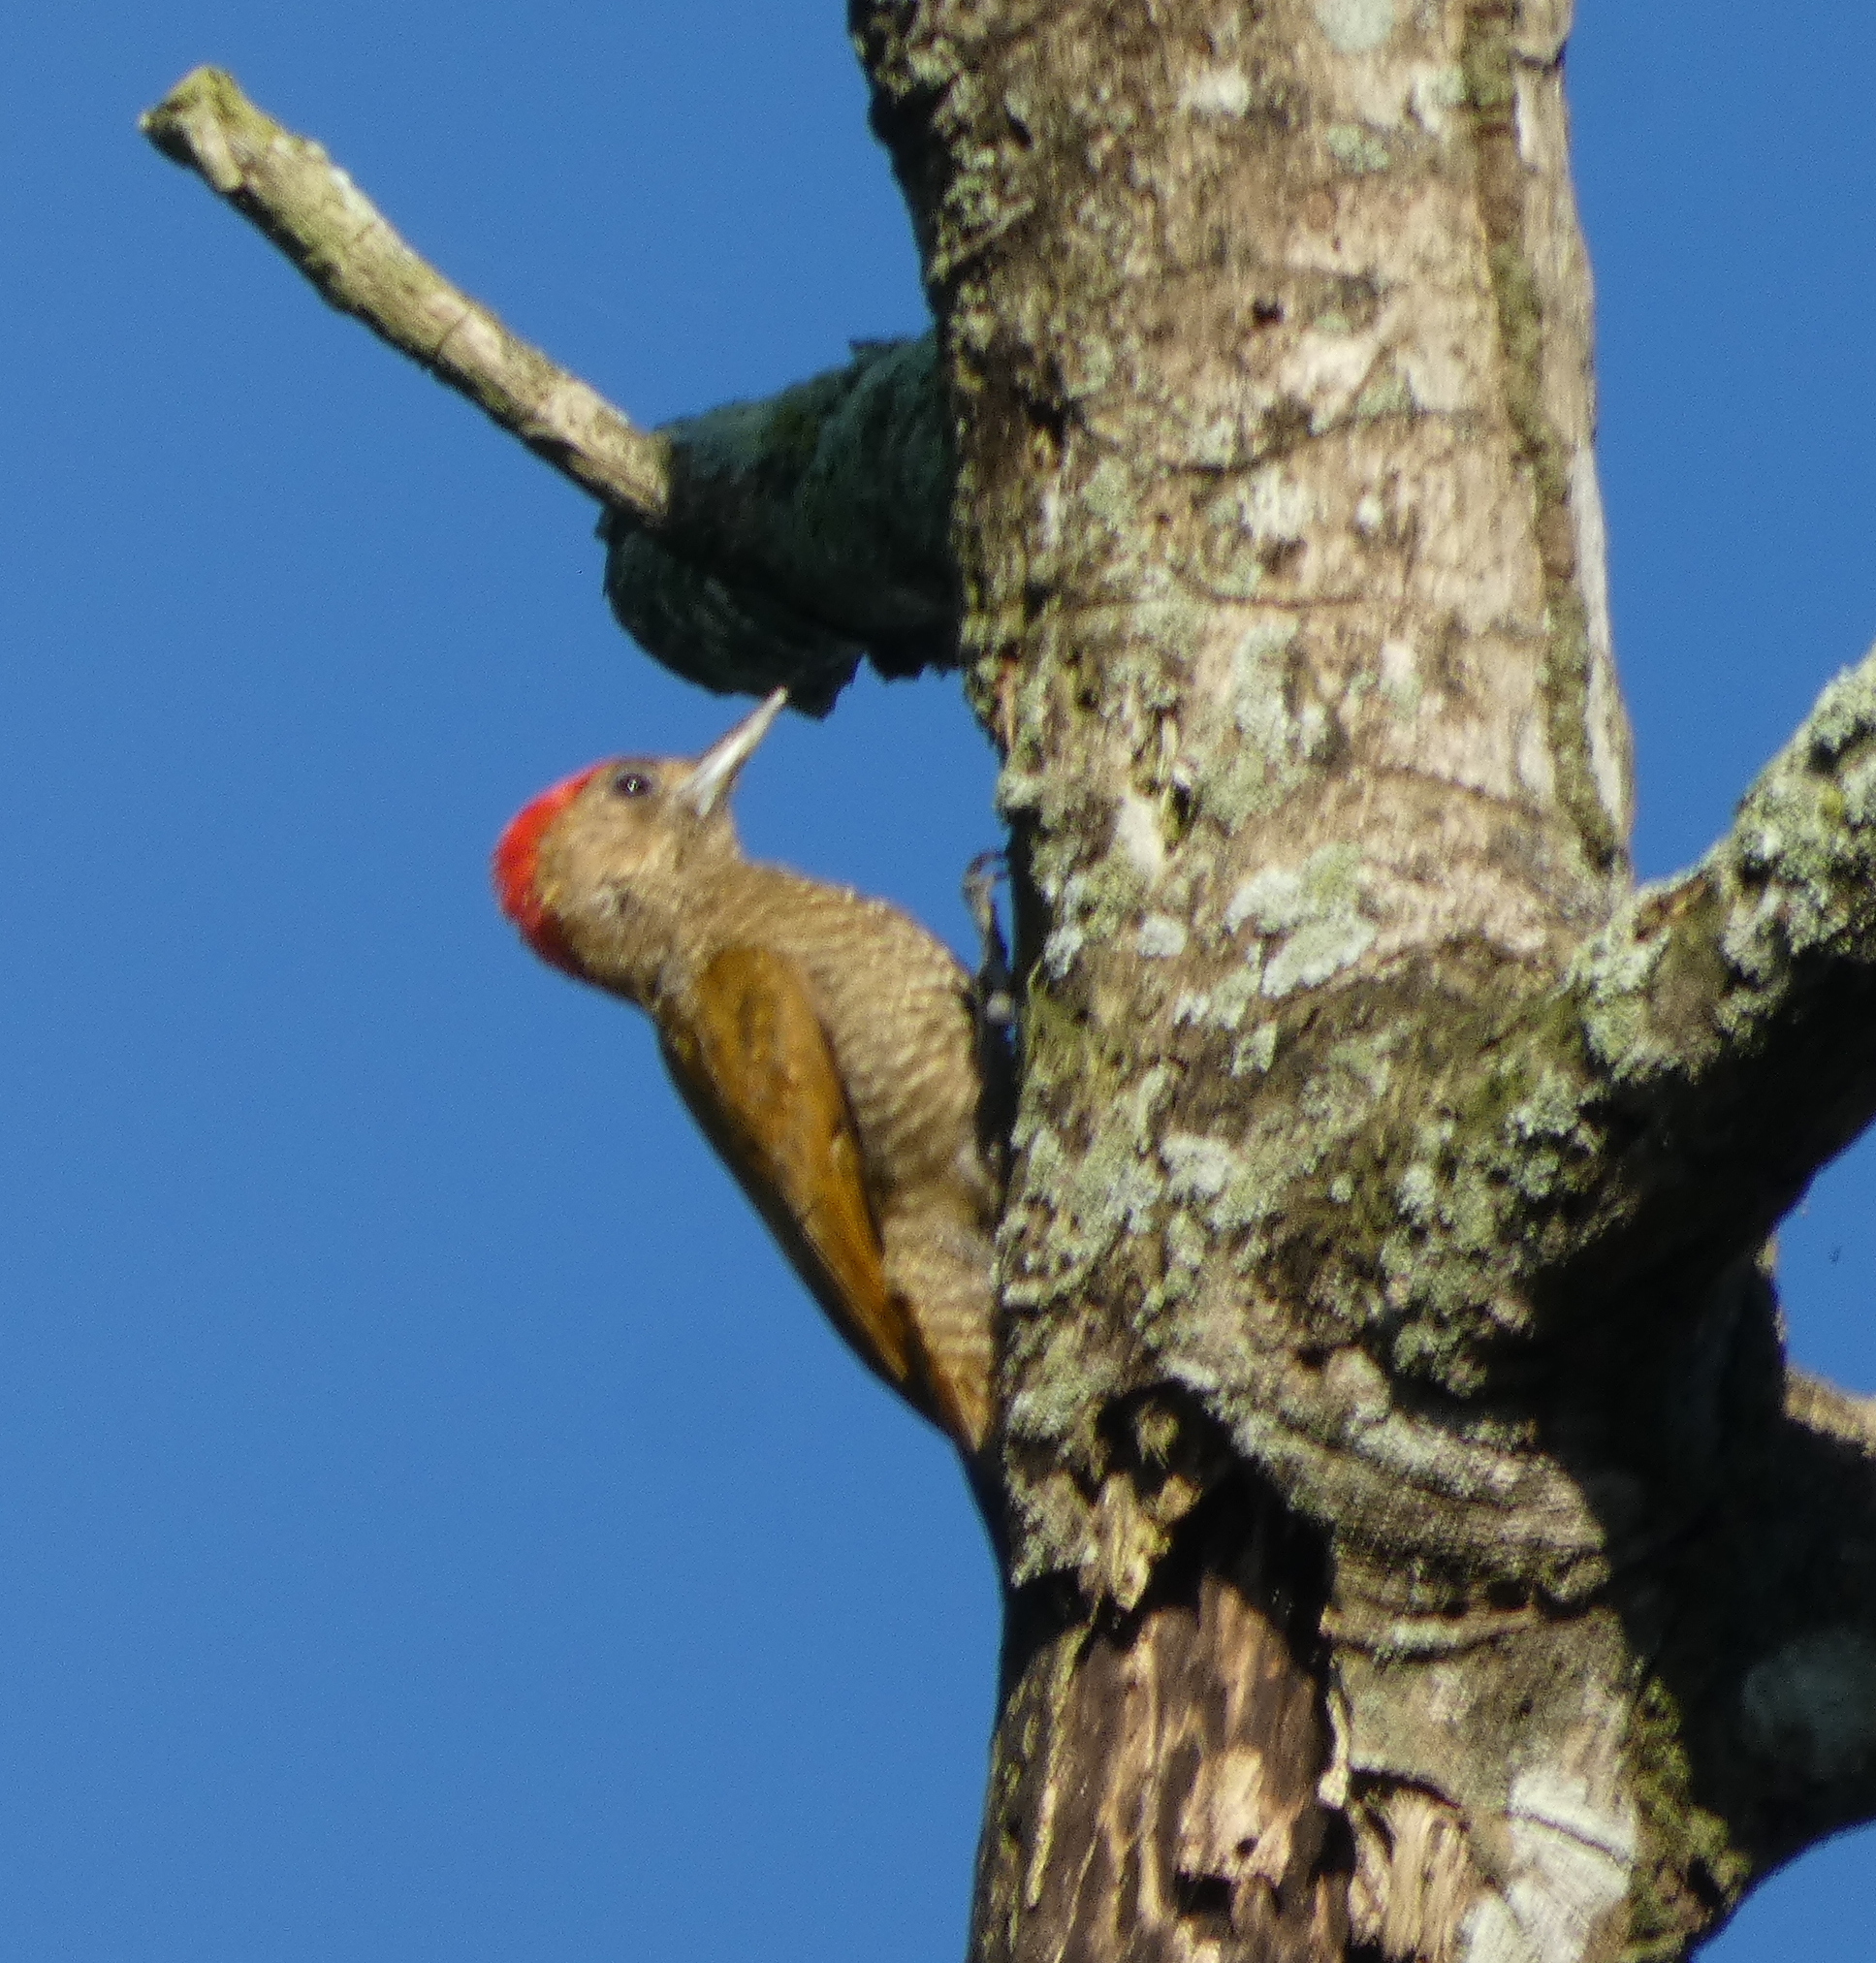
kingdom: Animalia
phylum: Chordata
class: Aves
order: Piciformes
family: Picidae
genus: Veniliornis
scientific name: Veniliornis passerinus
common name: Little woodpecker
